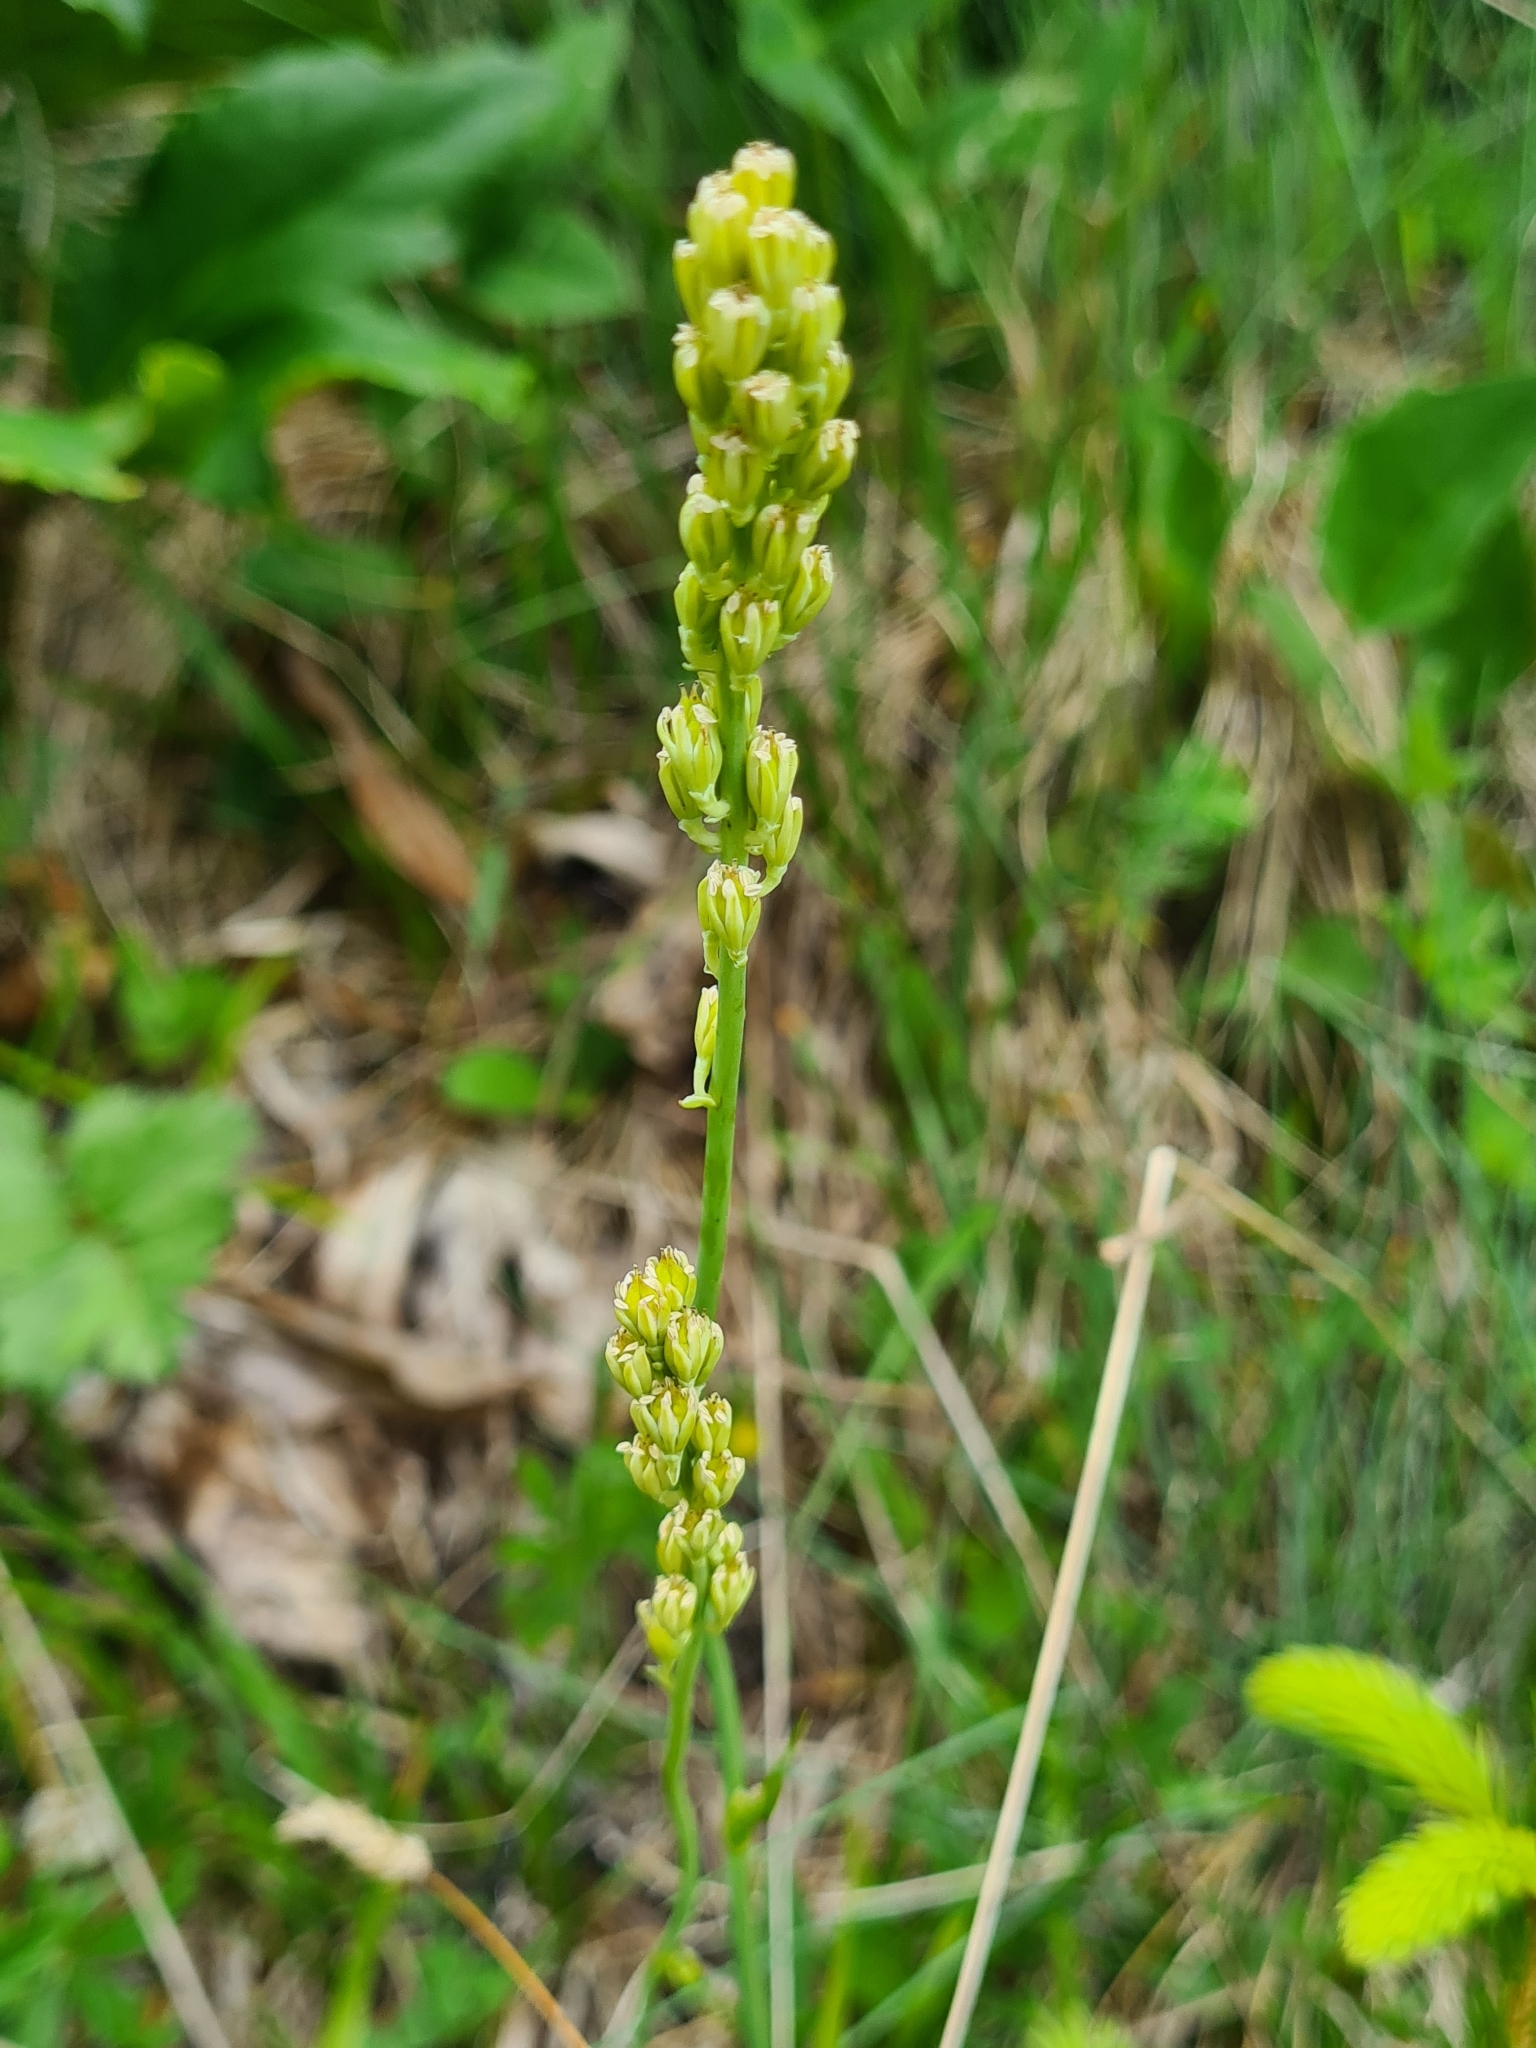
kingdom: Plantae
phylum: Tracheophyta
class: Liliopsida
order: Alismatales
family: Tofieldiaceae
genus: Tofieldia
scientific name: Tofieldia calyculata
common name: German-asphodel
